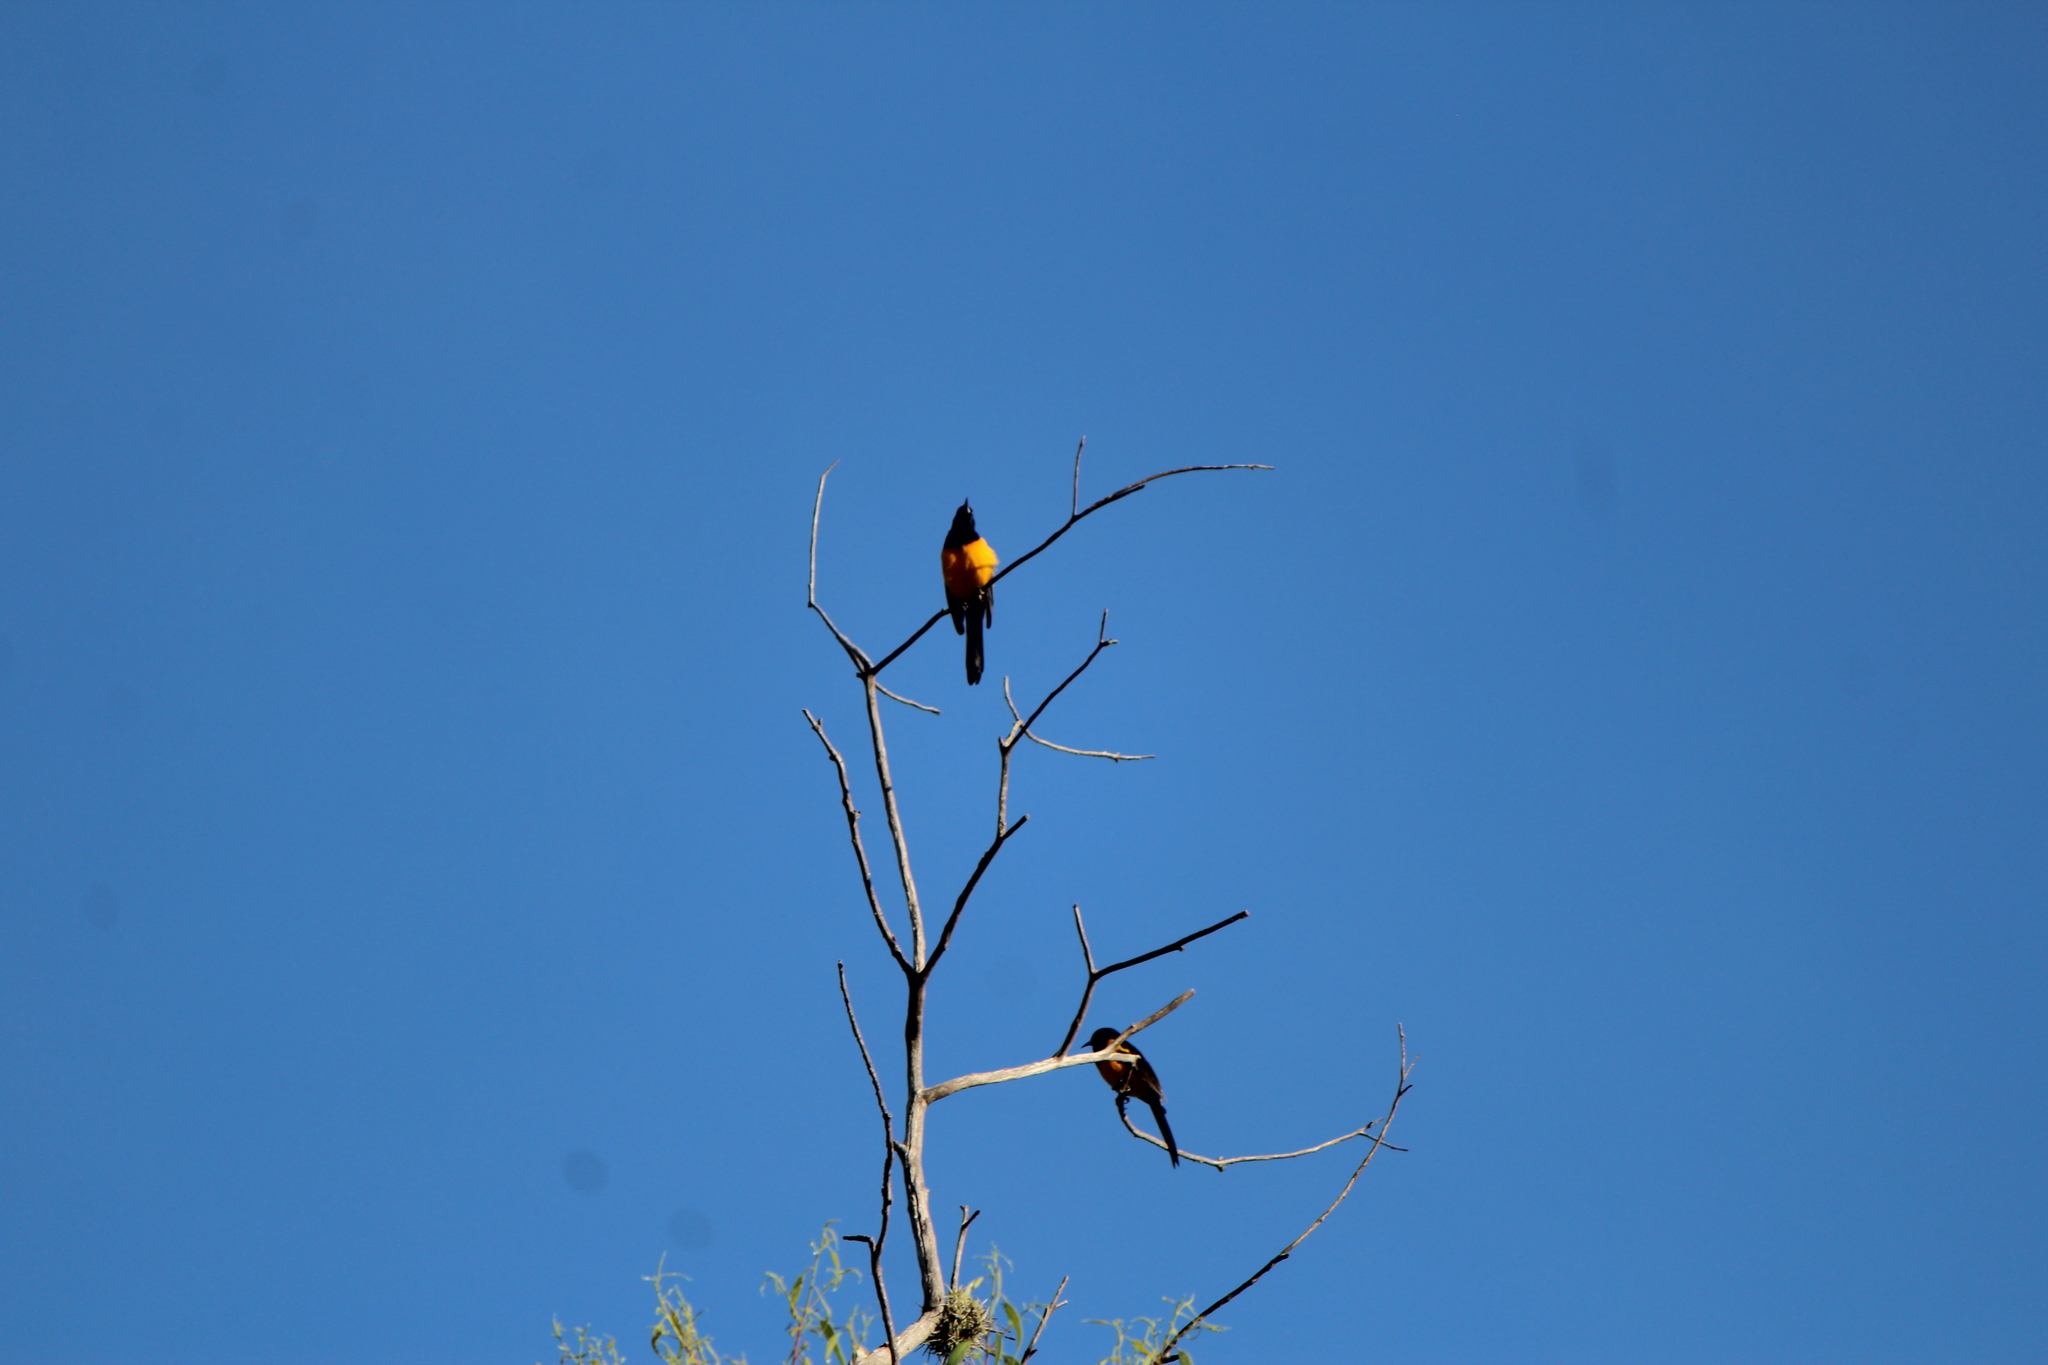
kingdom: Animalia
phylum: Chordata
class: Aves
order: Passeriformes
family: Icteridae
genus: Icterus
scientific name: Icterus wagleri
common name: Black-vented oriole
